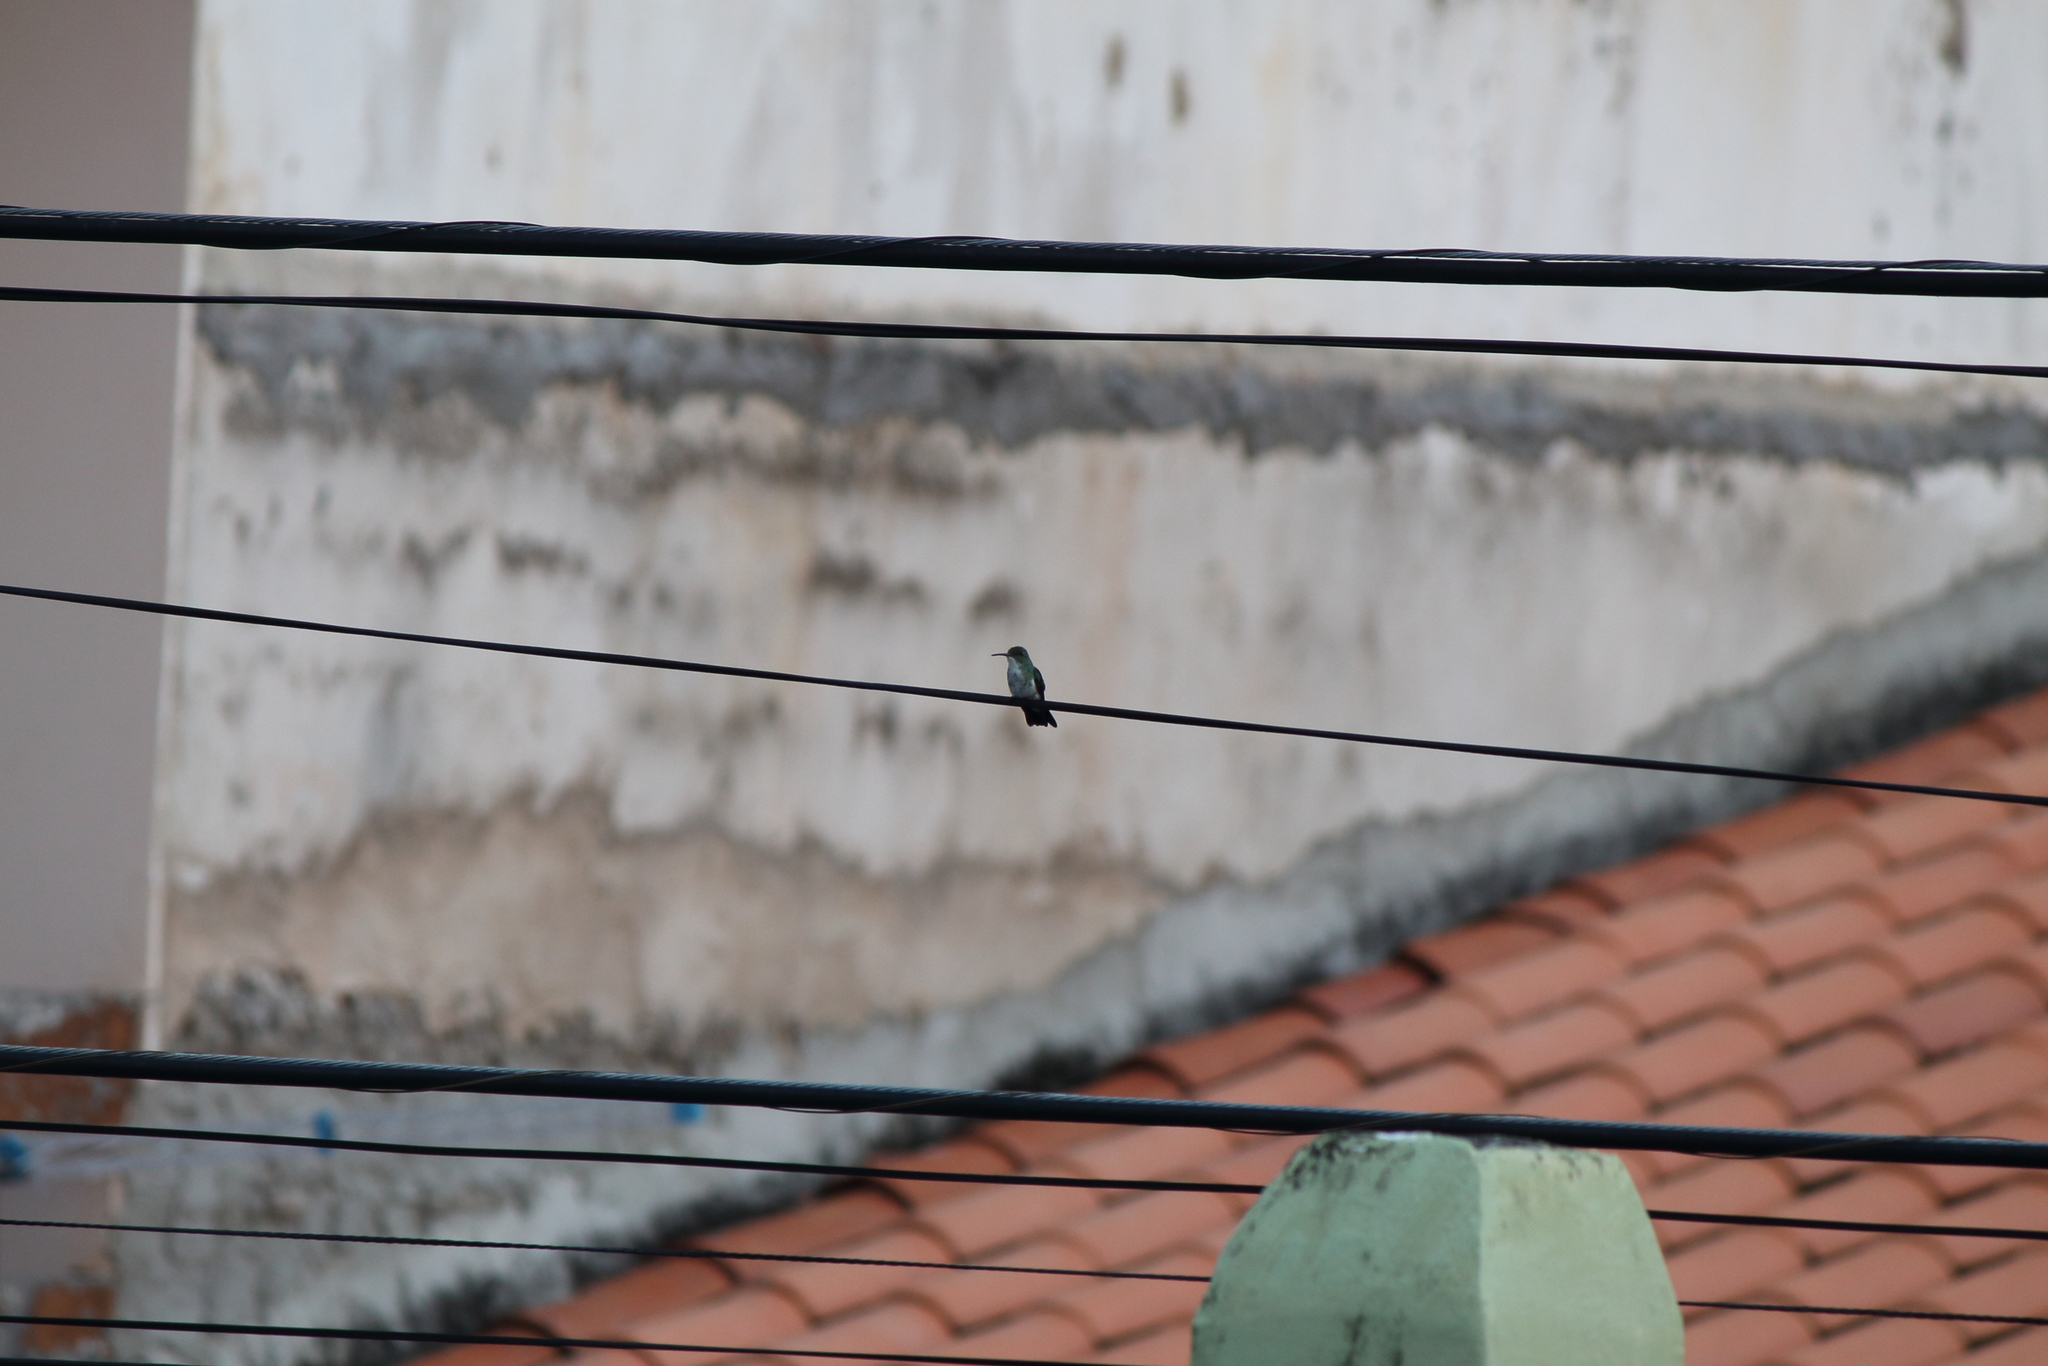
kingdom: Animalia
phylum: Chordata
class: Aves
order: Apodiformes
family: Trochilidae
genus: Chrysuronia
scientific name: Chrysuronia leucogaster
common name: Plain-bellied emerald
